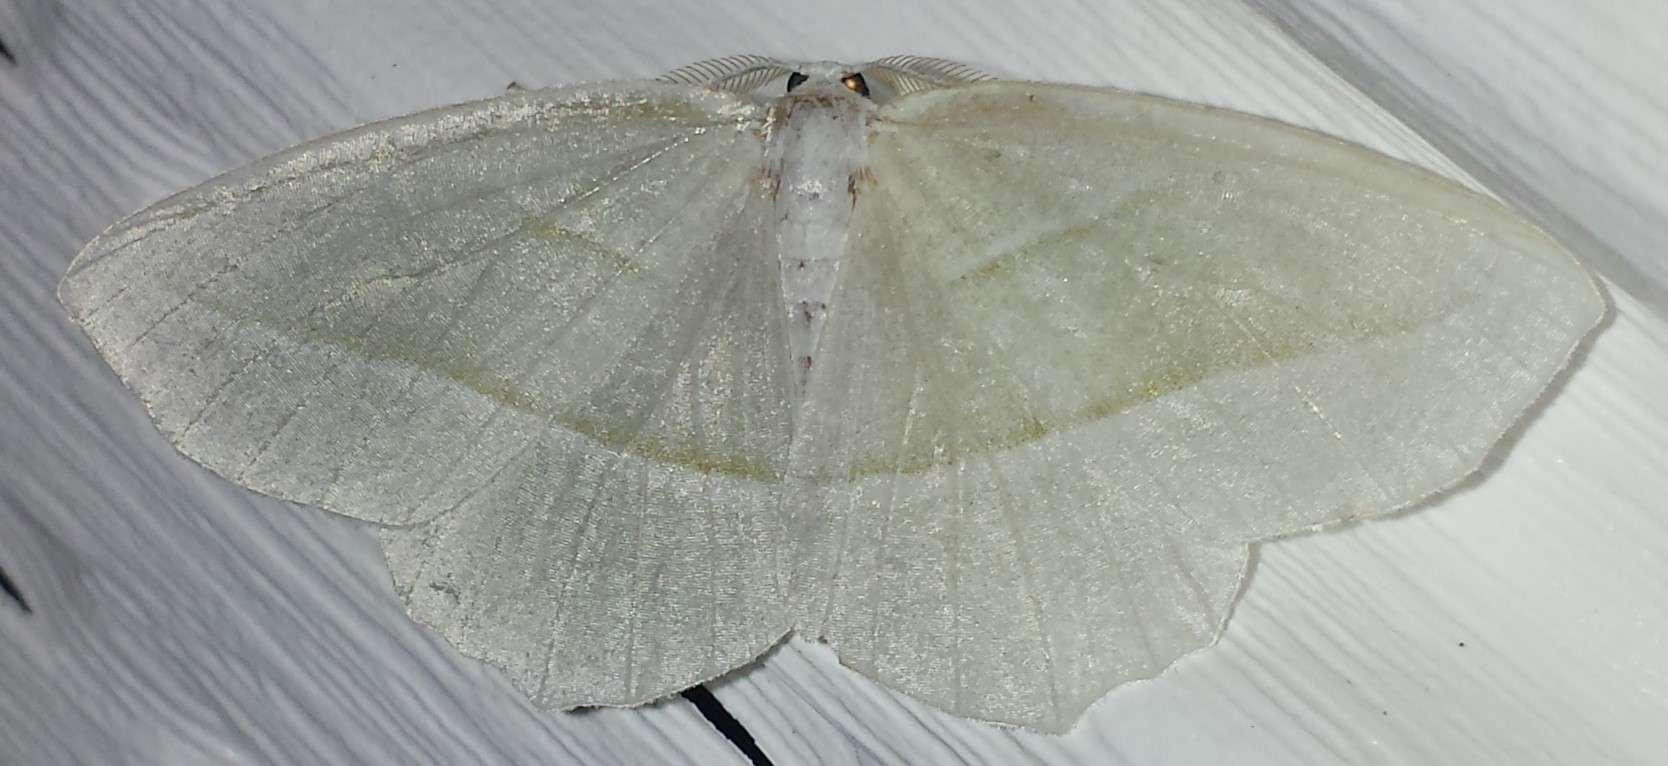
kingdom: Animalia
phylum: Arthropoda
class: Insecta
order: Lepidoptera
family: Geometridae
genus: Campaea
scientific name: Campaea perlata
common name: Fringed looper
